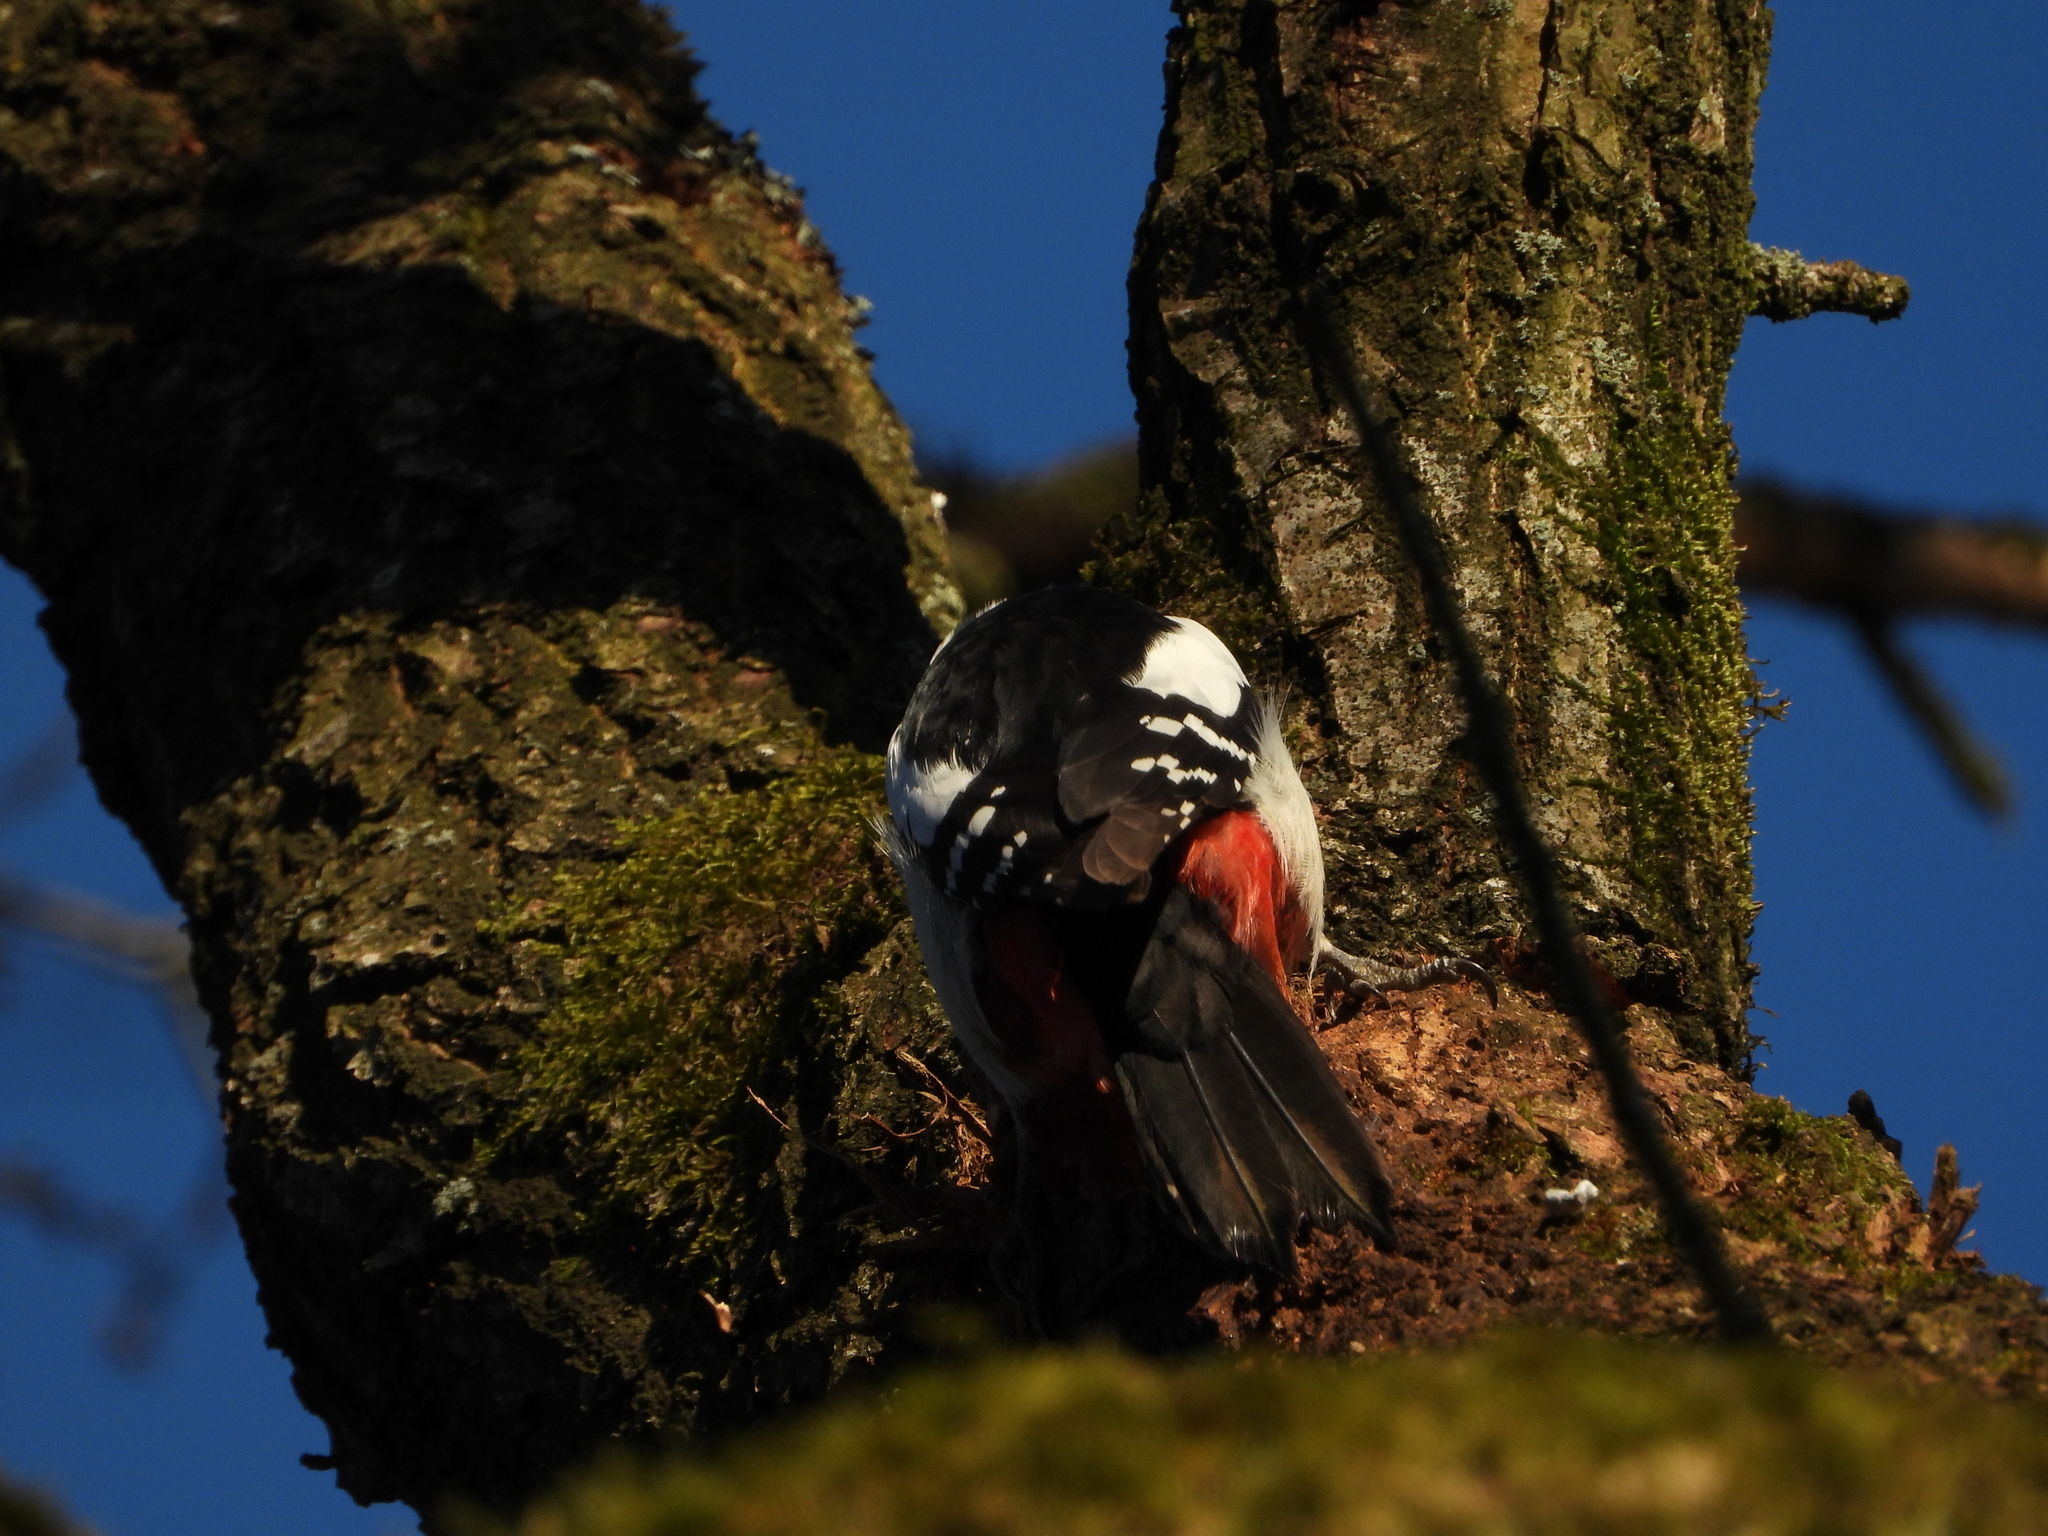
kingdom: Animalia
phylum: Chordata
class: Aves
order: Piciformes
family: Picidae
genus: Dendrocopos
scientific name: Dendrocopos major
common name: Great spotted woodpecker
